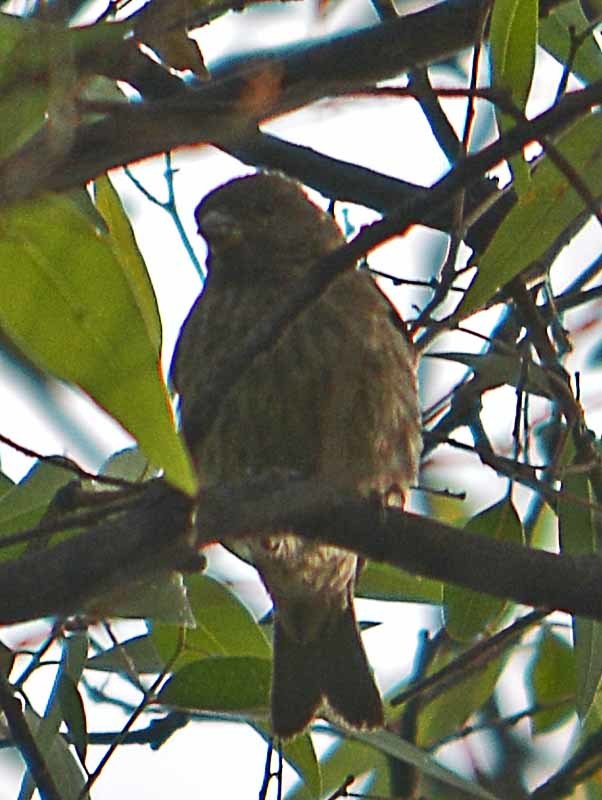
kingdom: Animalia
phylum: Chordata
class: Aves
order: Passeriformes
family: Fringillidae
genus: Haemorhous
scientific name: Haemorhous mexicanus
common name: House finch
